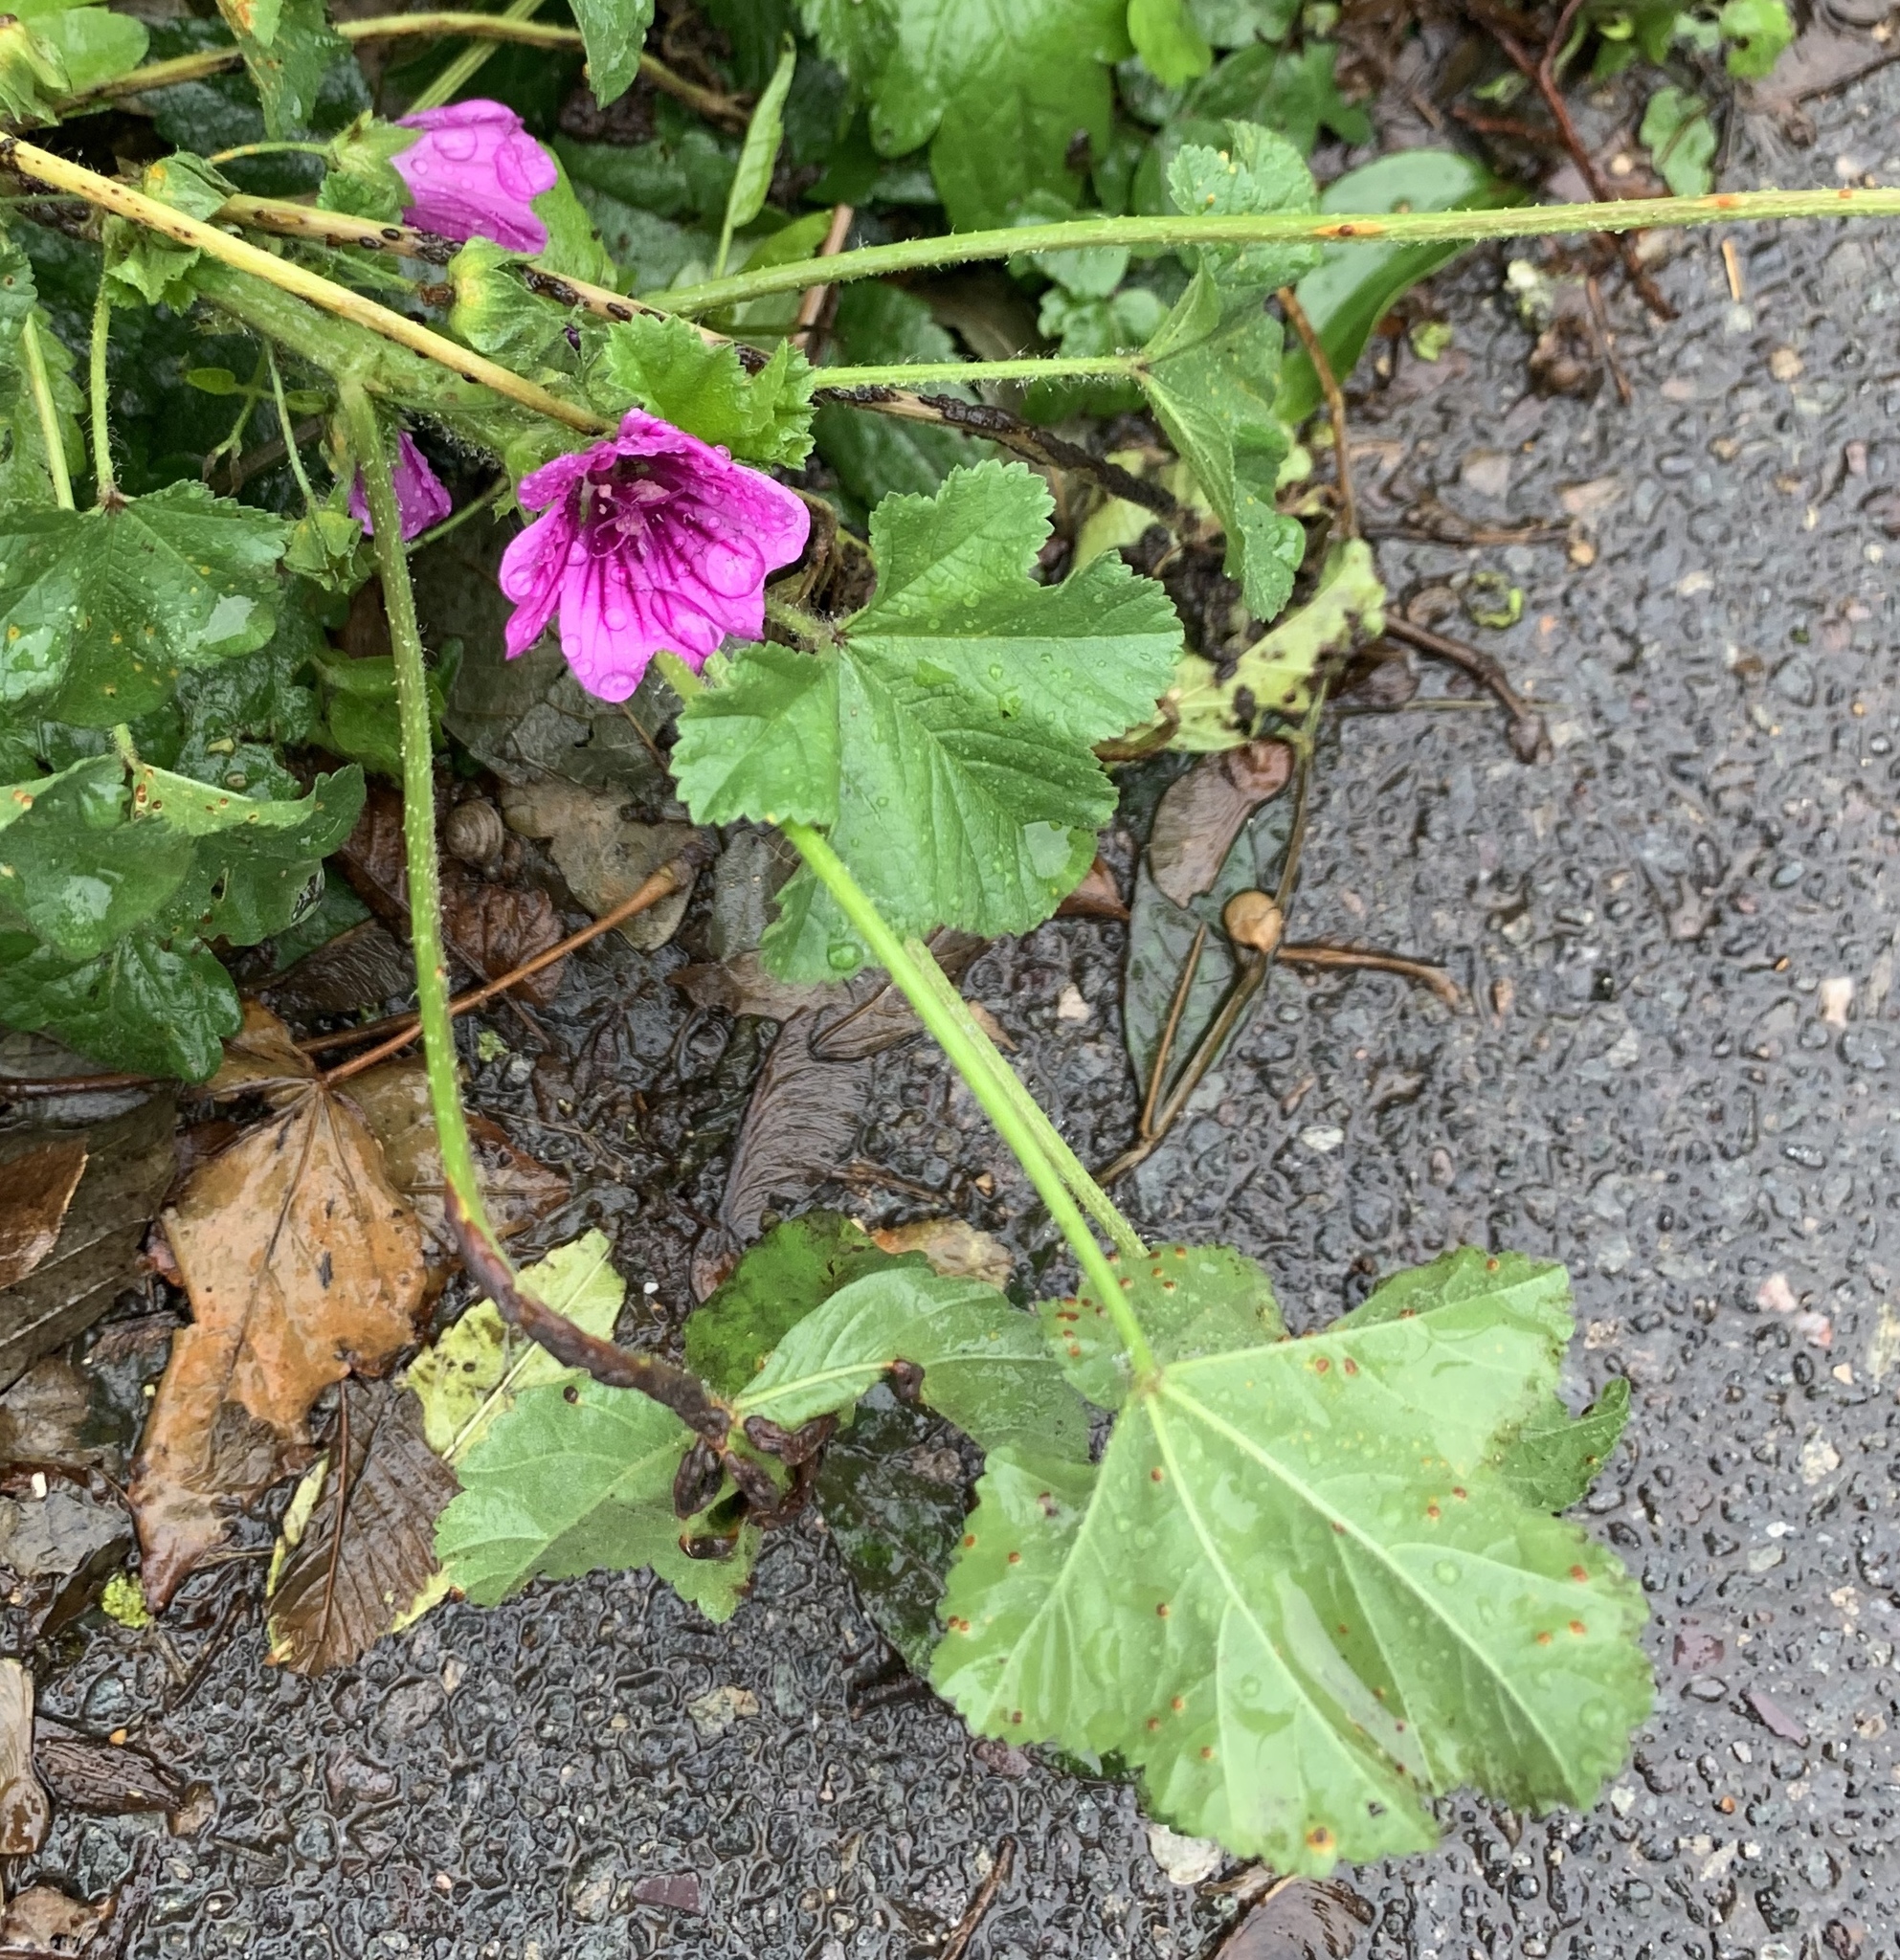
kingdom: Plantae
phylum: Tracheophyta
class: Magnoliopsida
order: Malvales
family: Malvaceae
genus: Malva
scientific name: Malva sylvestris
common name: Common mallow
